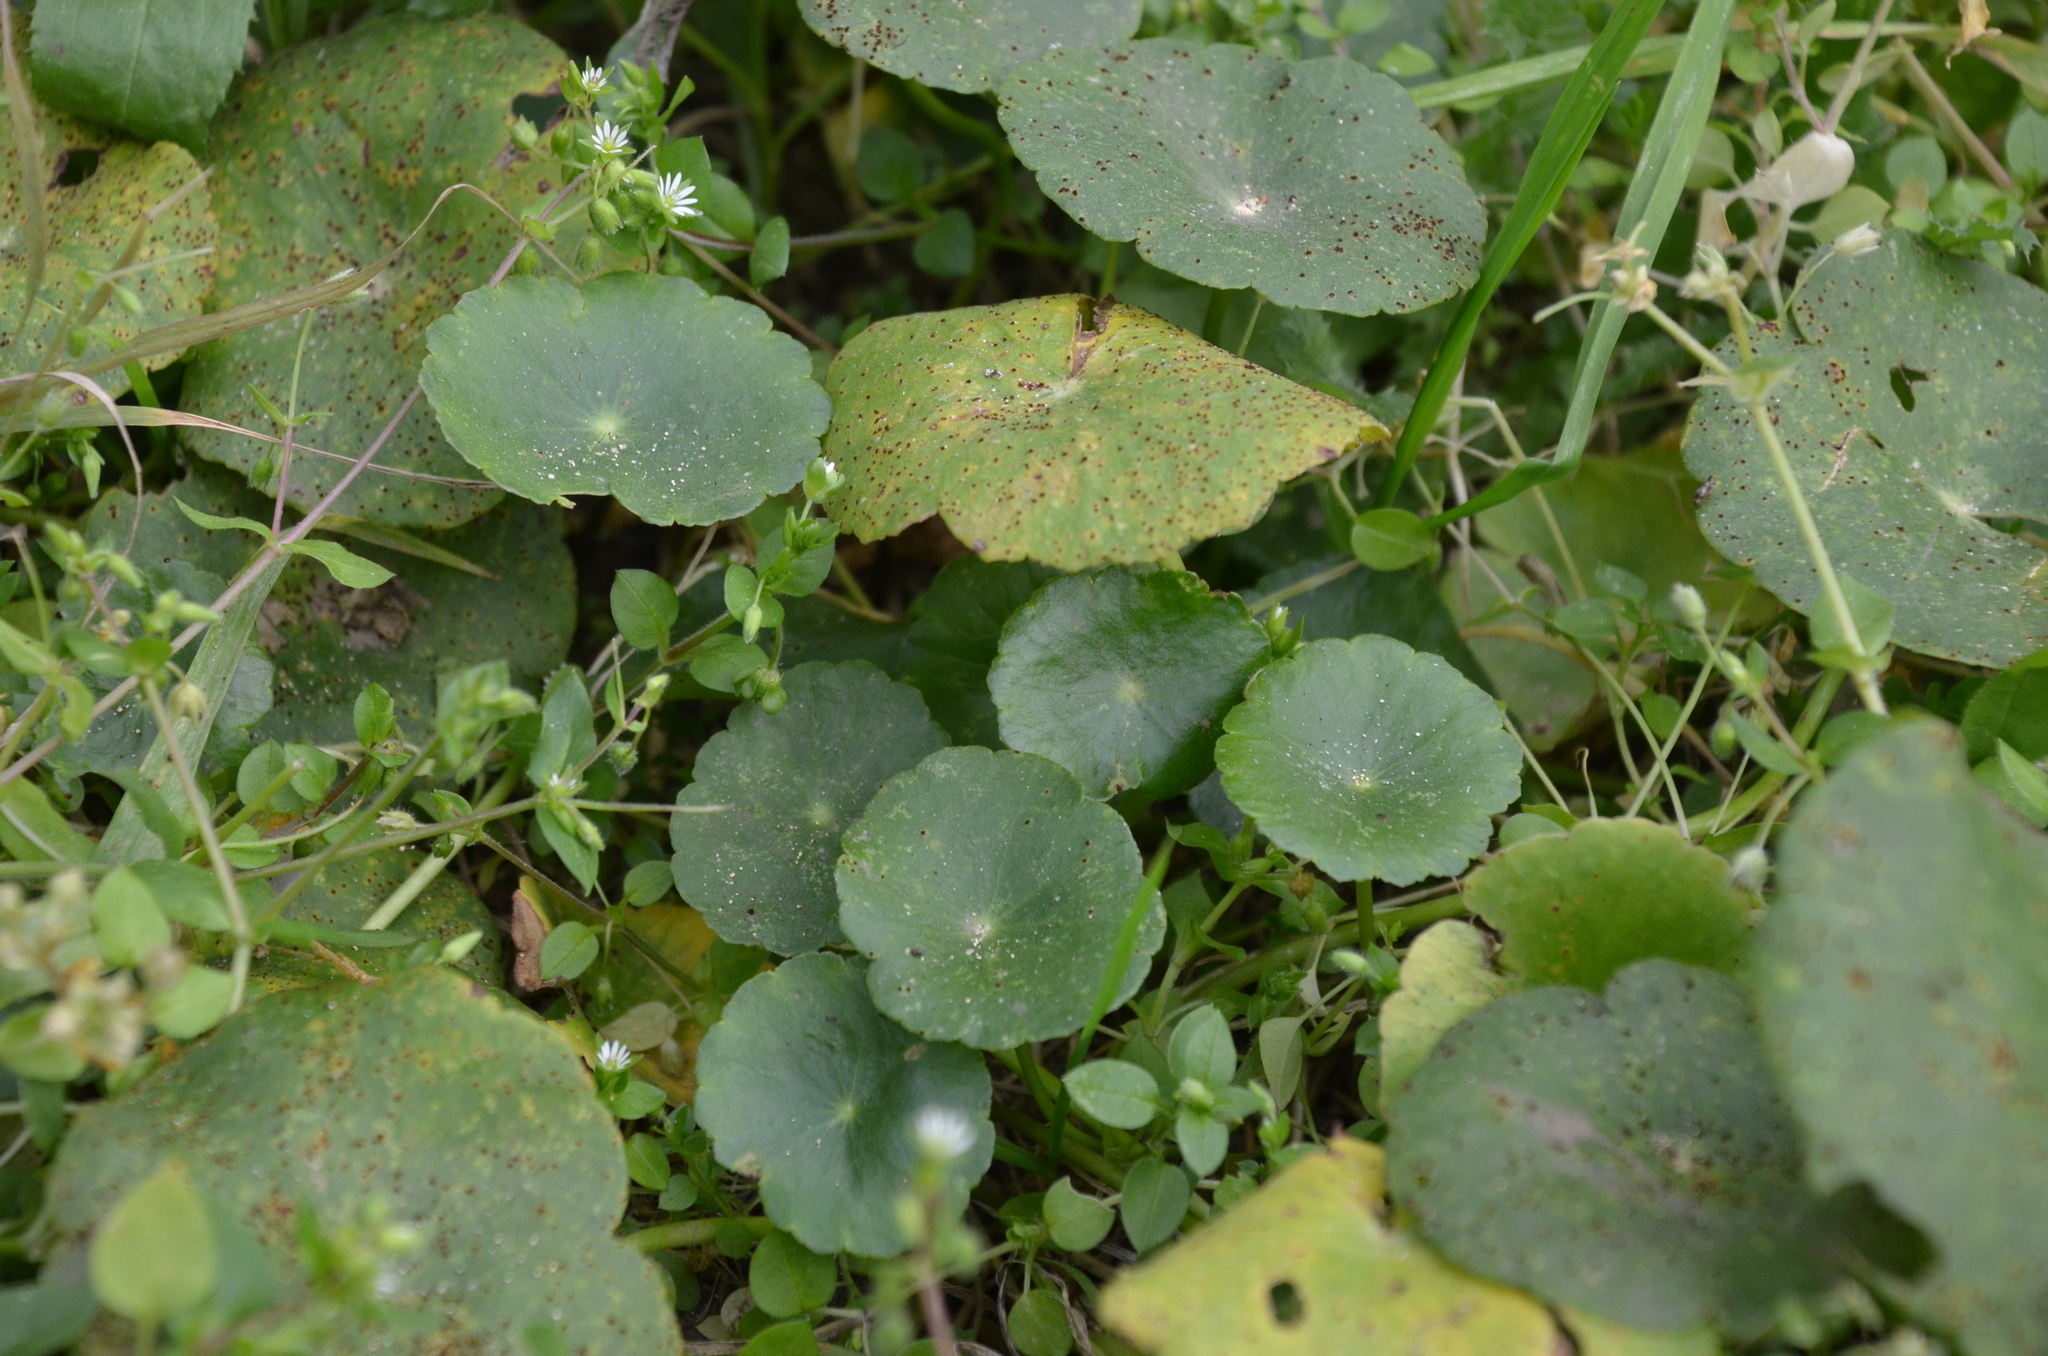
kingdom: Plantae
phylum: Tracheophyta
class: Magnoliopsida
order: Apiales
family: Araliaceae
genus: Hydrocotyle
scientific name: Hydrocotyle bonariensis
